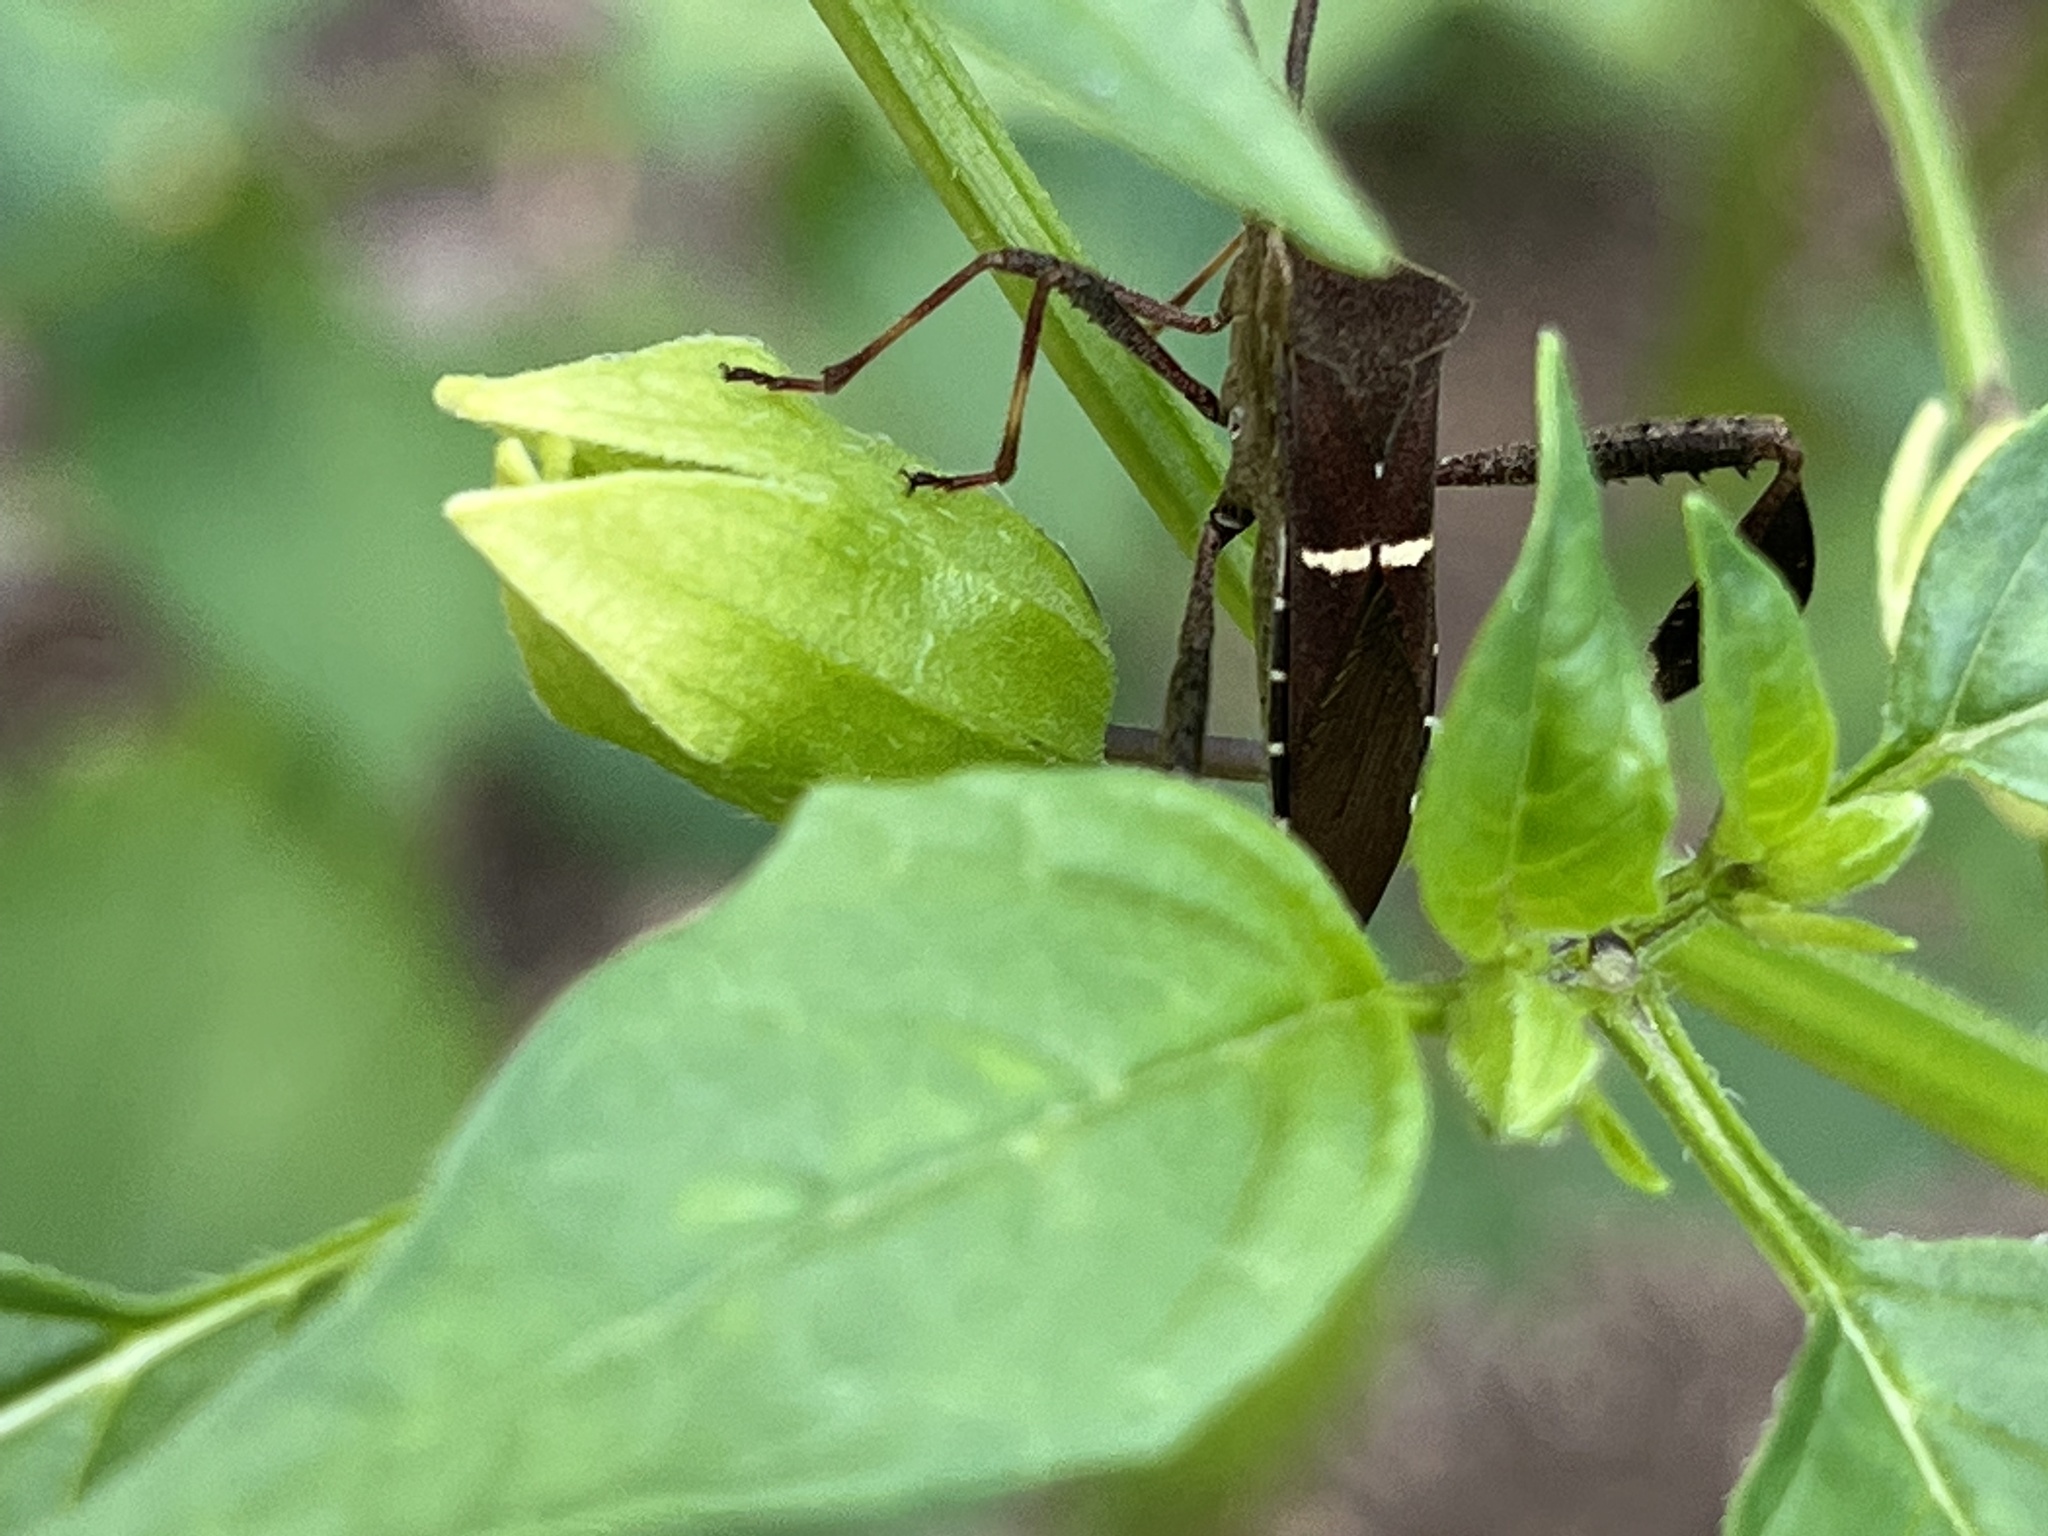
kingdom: Animalia
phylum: Arthropoda
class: Insecta
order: Hemiptera
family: Coreidae
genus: Leptoglossus
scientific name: Leptoglossus phyllopus
